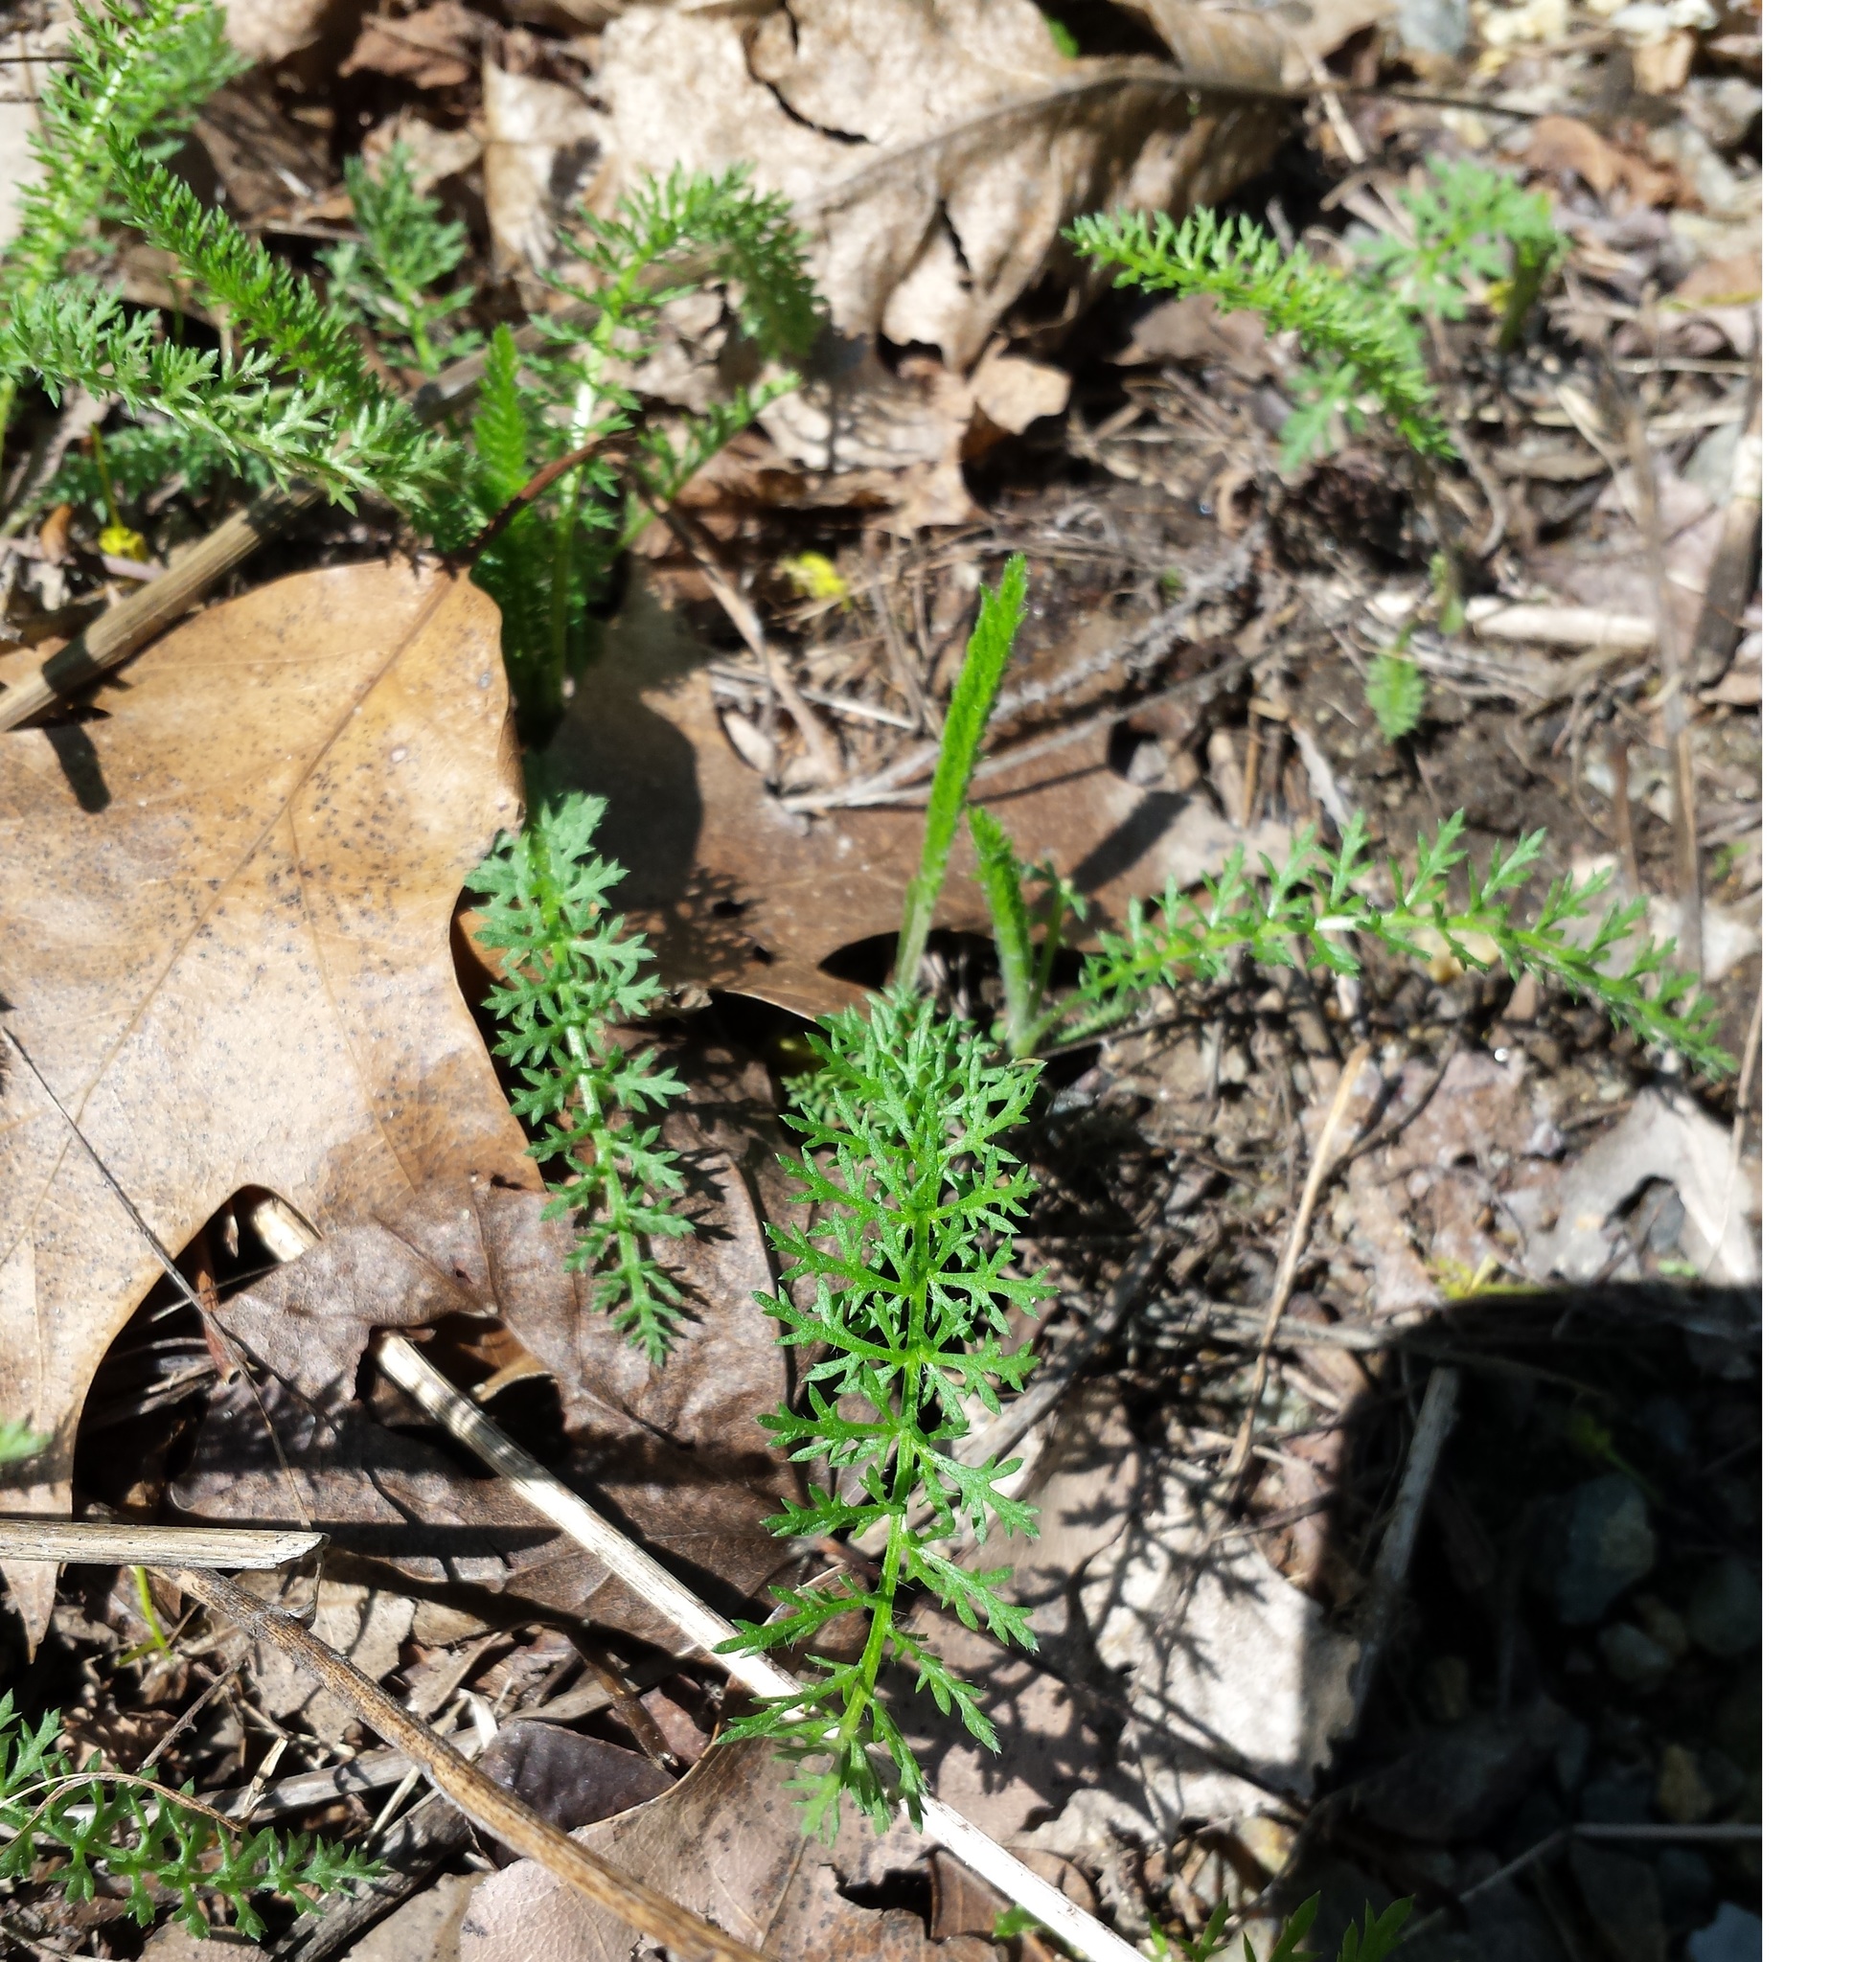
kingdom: Plantae
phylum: Tracheophyta
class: Magnoliopsida
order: Asterales
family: Asteraceae
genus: Achillea
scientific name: Achillea millefolium
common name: Yarrow
